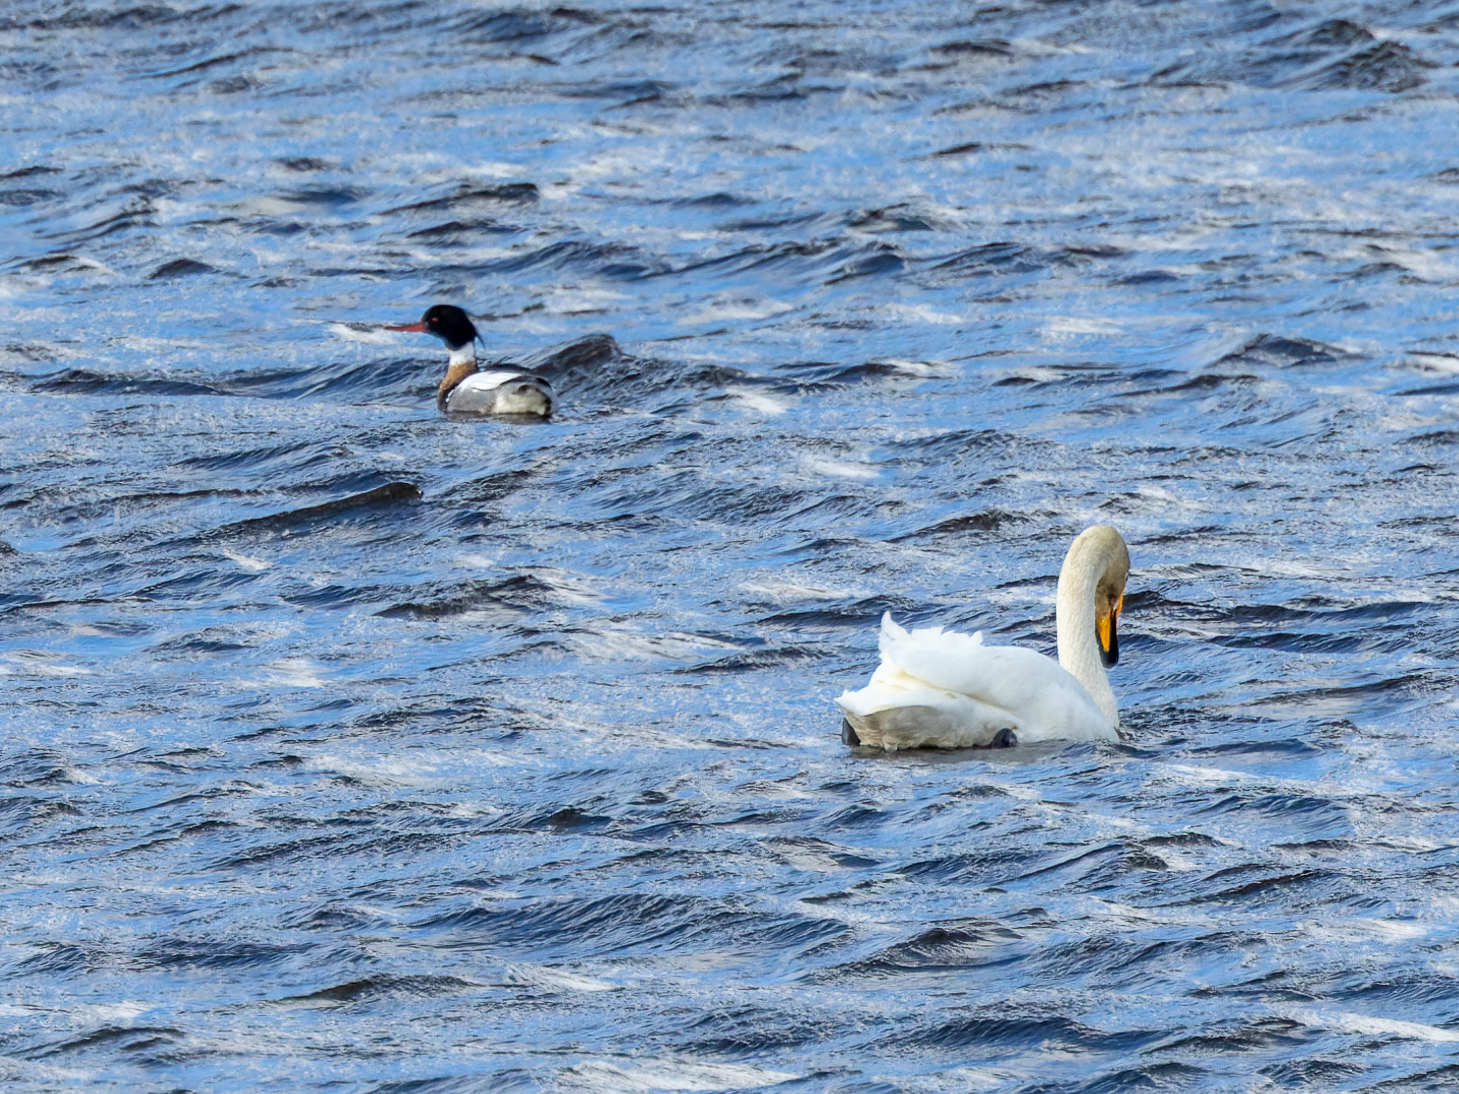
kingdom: Animalia
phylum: Chordata
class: Aves
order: Anseriformes
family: Anatidae
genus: Cygnus
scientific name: Cygnus cygnus
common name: Whooper swan
